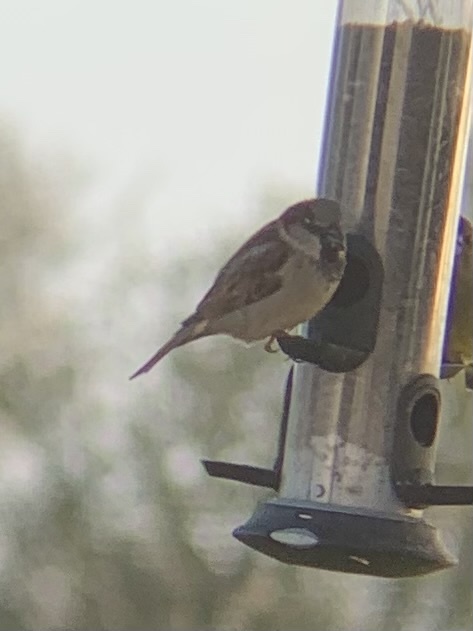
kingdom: Animalia
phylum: Chordata
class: Aves
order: Passeriformes
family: Passeridae
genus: Passer
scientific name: Passer domesticus
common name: House sparrow
